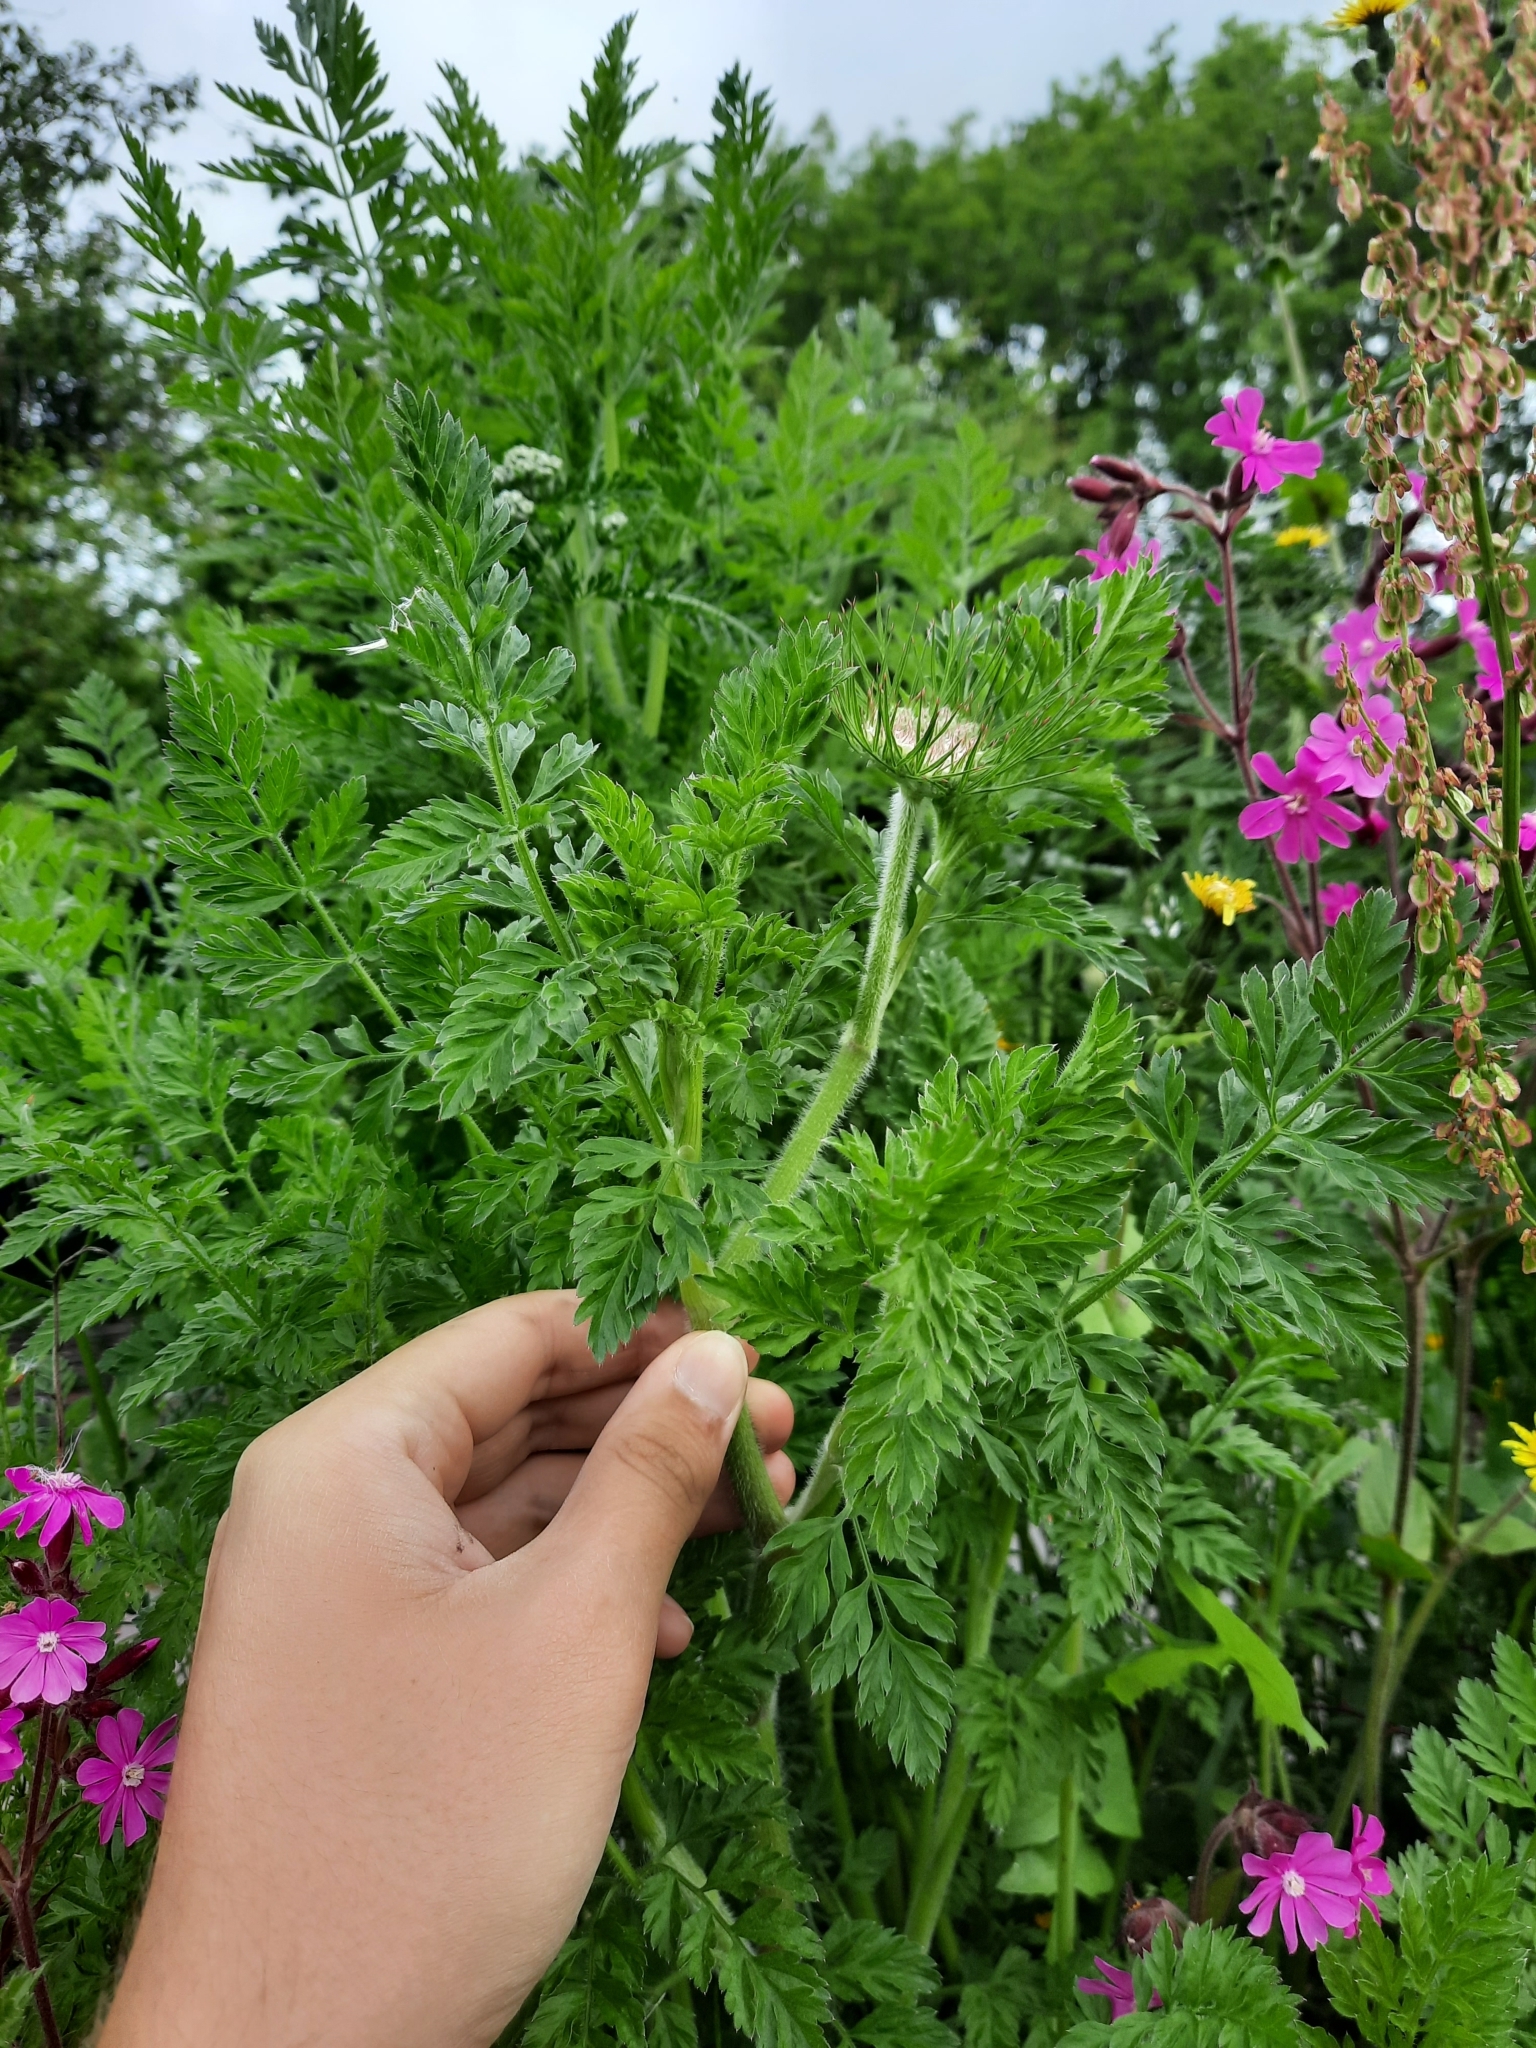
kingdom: Plantae
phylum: Tracheophyta
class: Magnoliopsida
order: Apiales
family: Apiaceae
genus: Daucus
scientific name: Daucus carota
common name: Wild carrot
